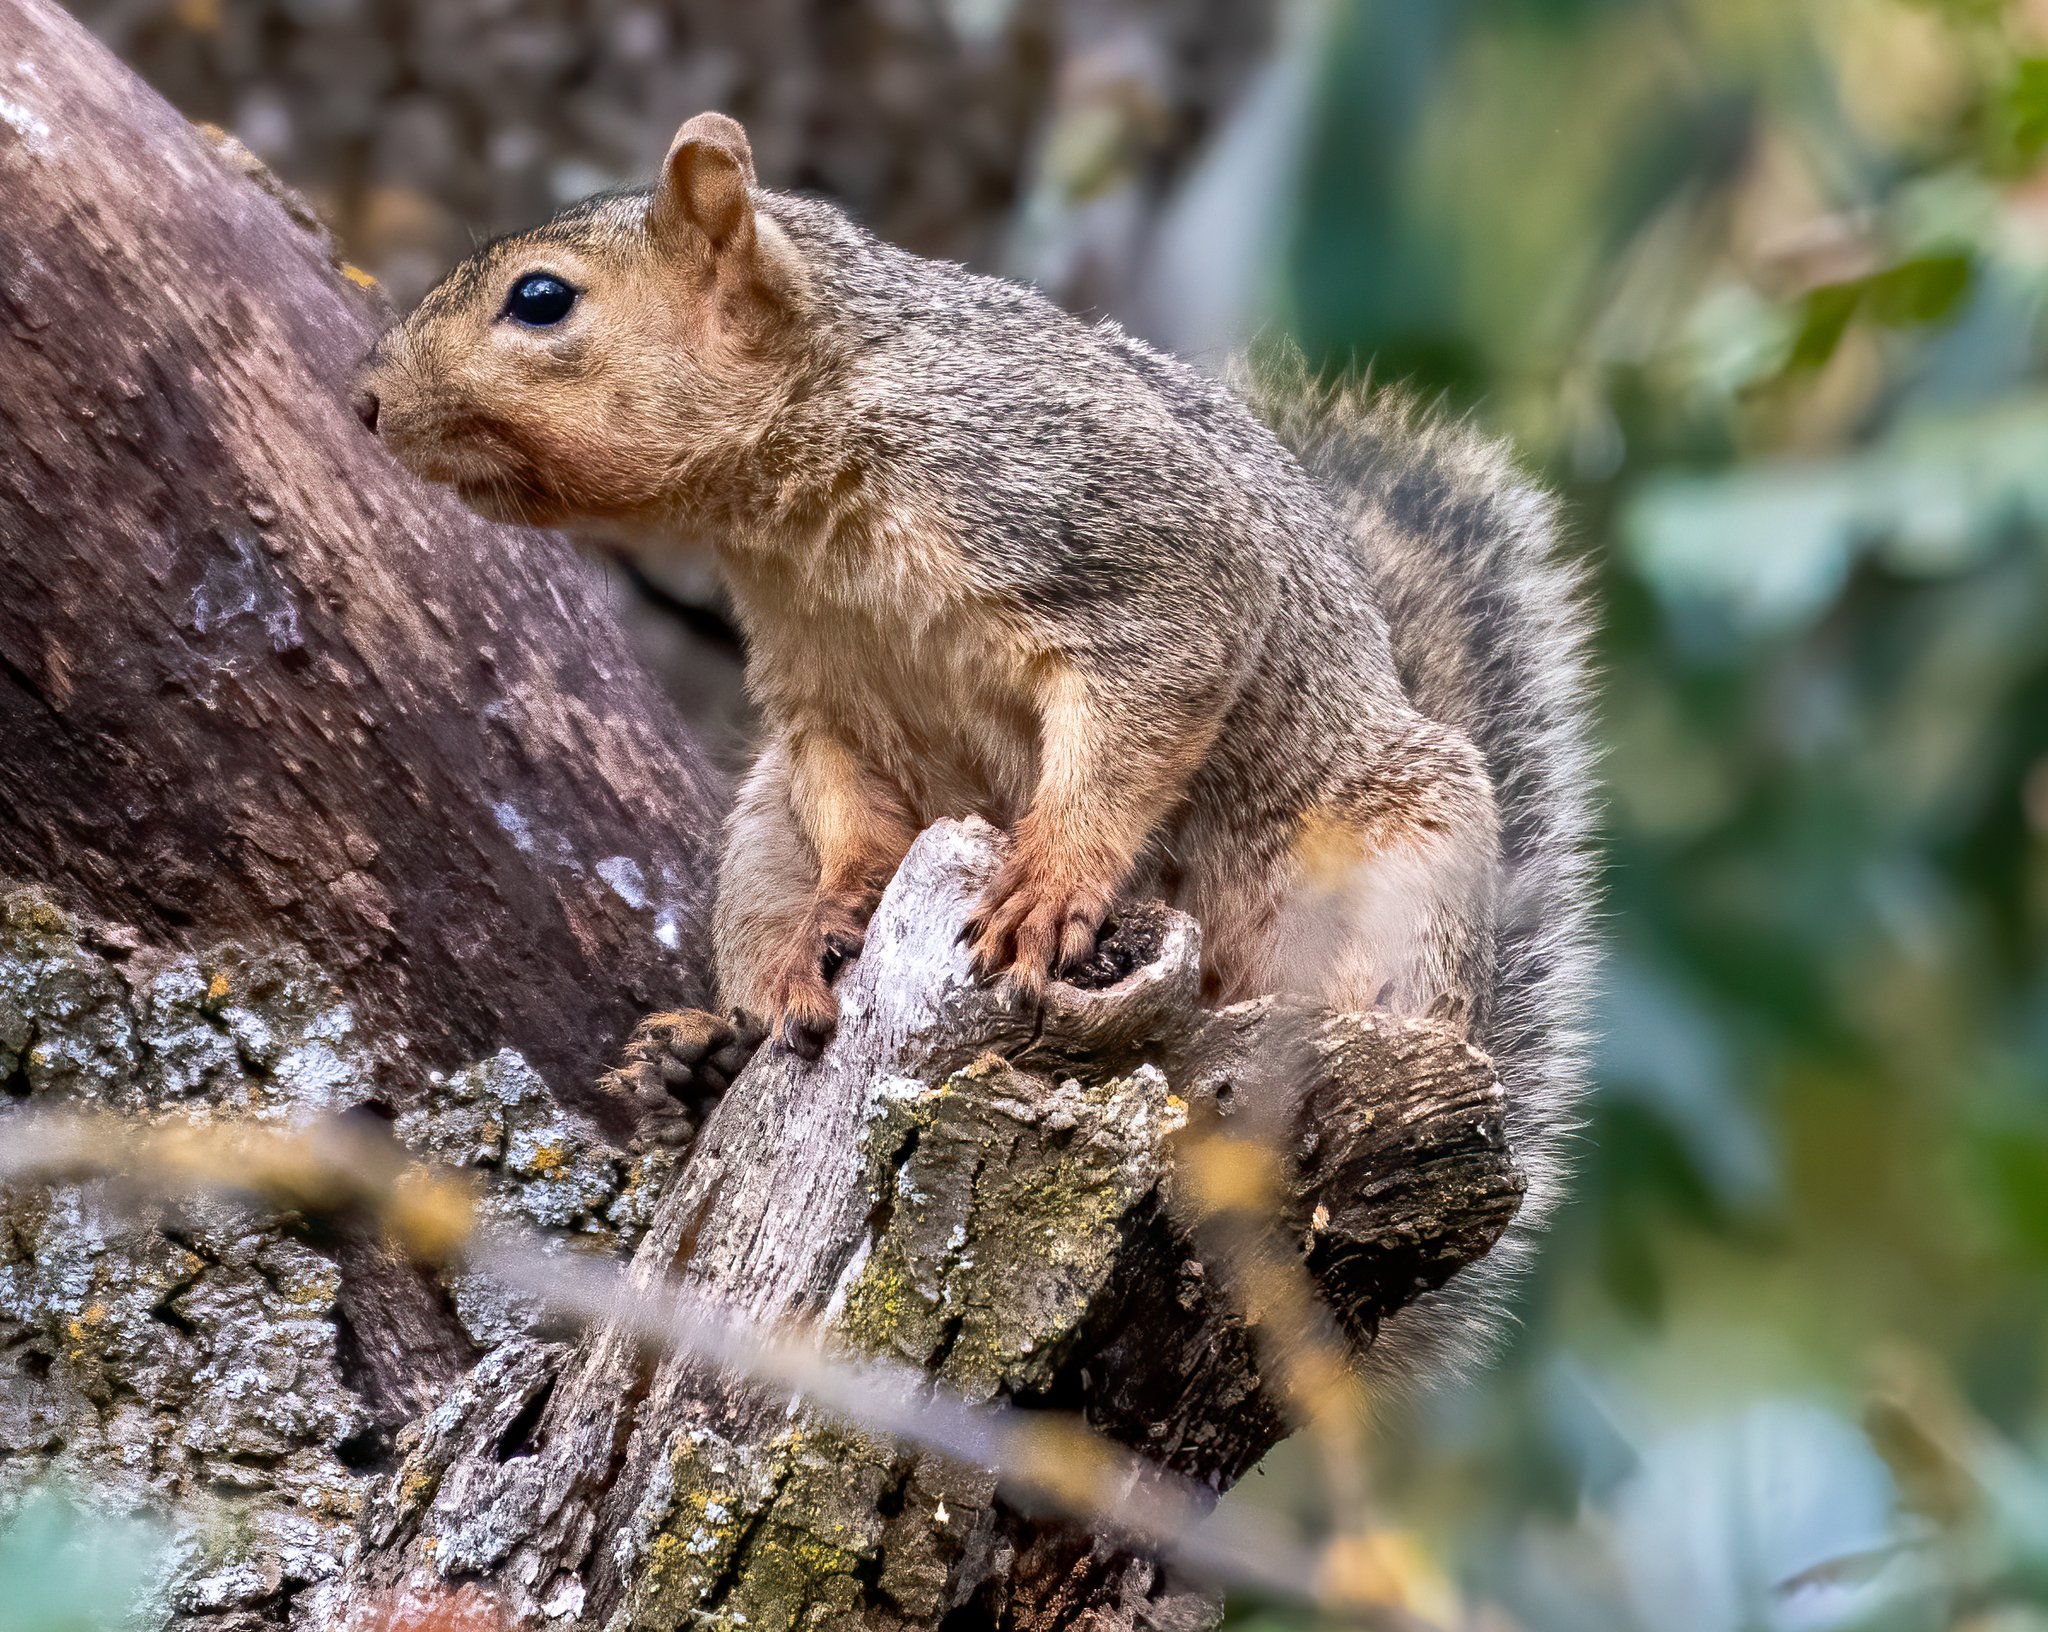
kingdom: Animalia
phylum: Chordata
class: Mammalia
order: Rodentia
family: Sciuridae
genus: Sciurus
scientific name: Sciurus niger
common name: Fox squirrel
